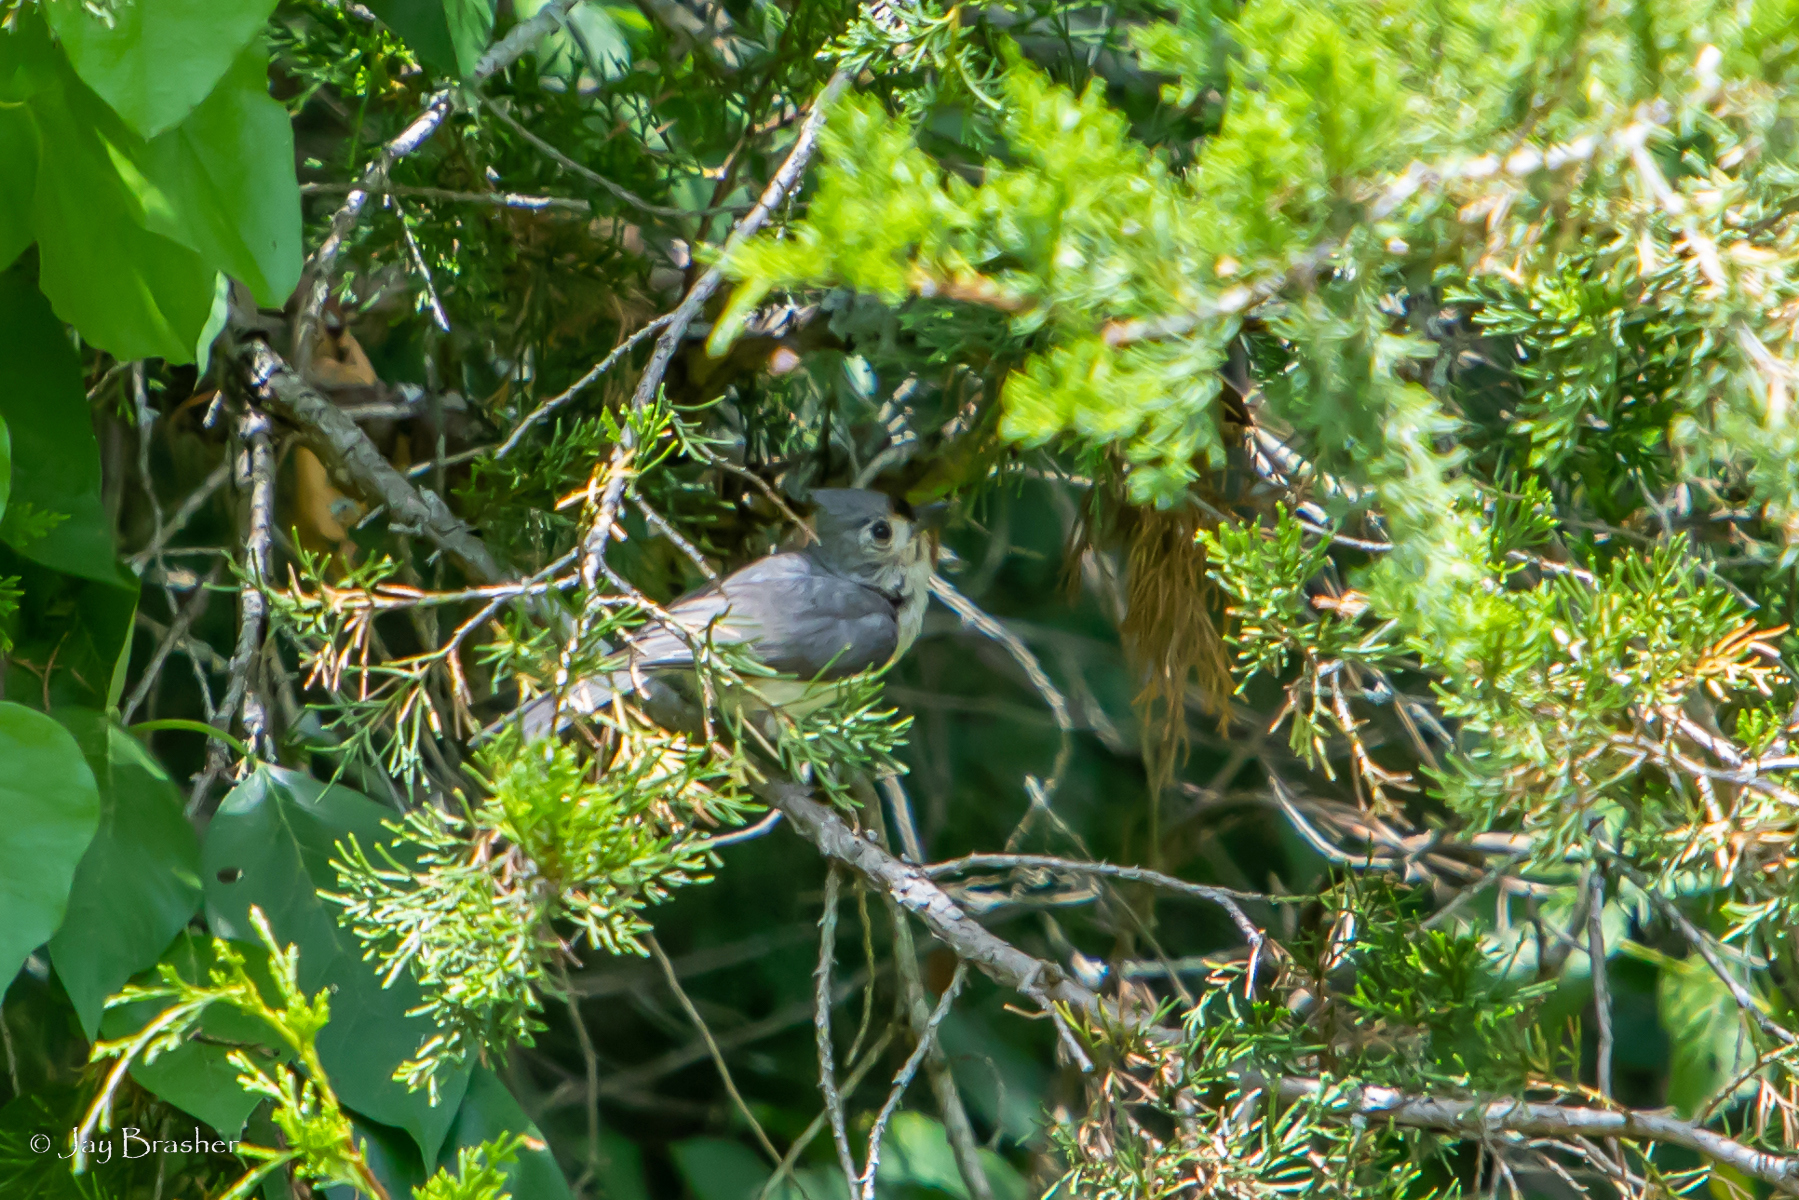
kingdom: Animalia
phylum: Chordata
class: Aves
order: Passeriformes
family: Paridae
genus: Baeolophus
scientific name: Baeolophus bicolor
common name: Tufted titmouse
